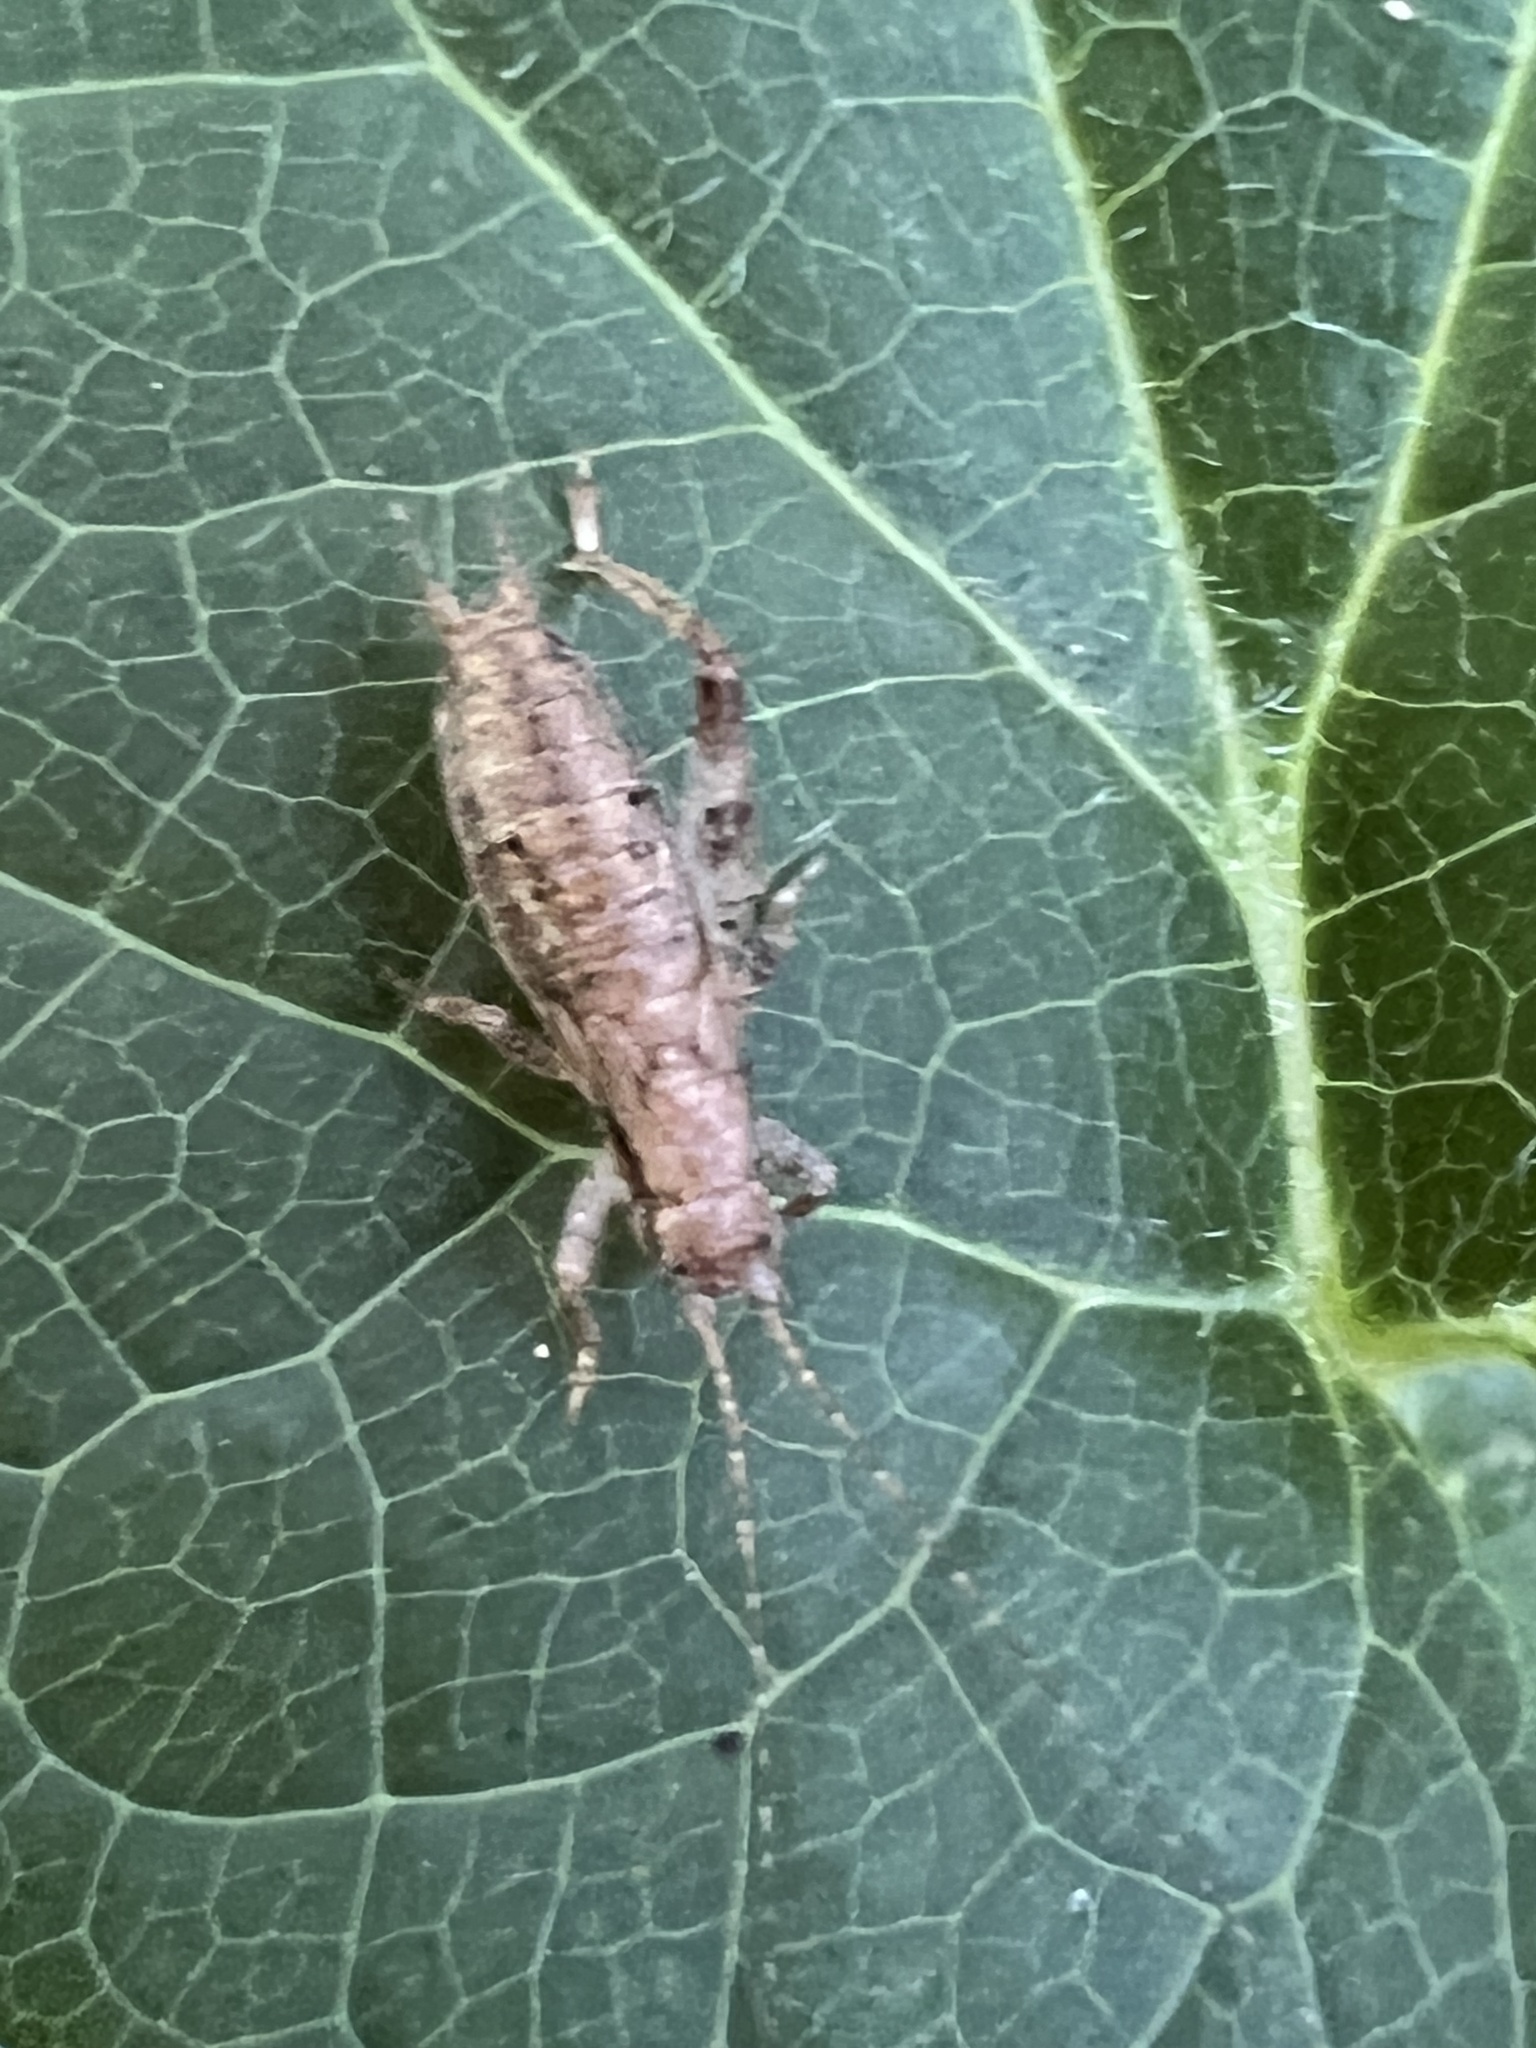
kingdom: Animalia
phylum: Arthropoda
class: Insecta
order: Orthoptera
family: Gryllidae
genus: Hapithus
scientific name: Hapithus saltator
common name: Jumping bush cricket
